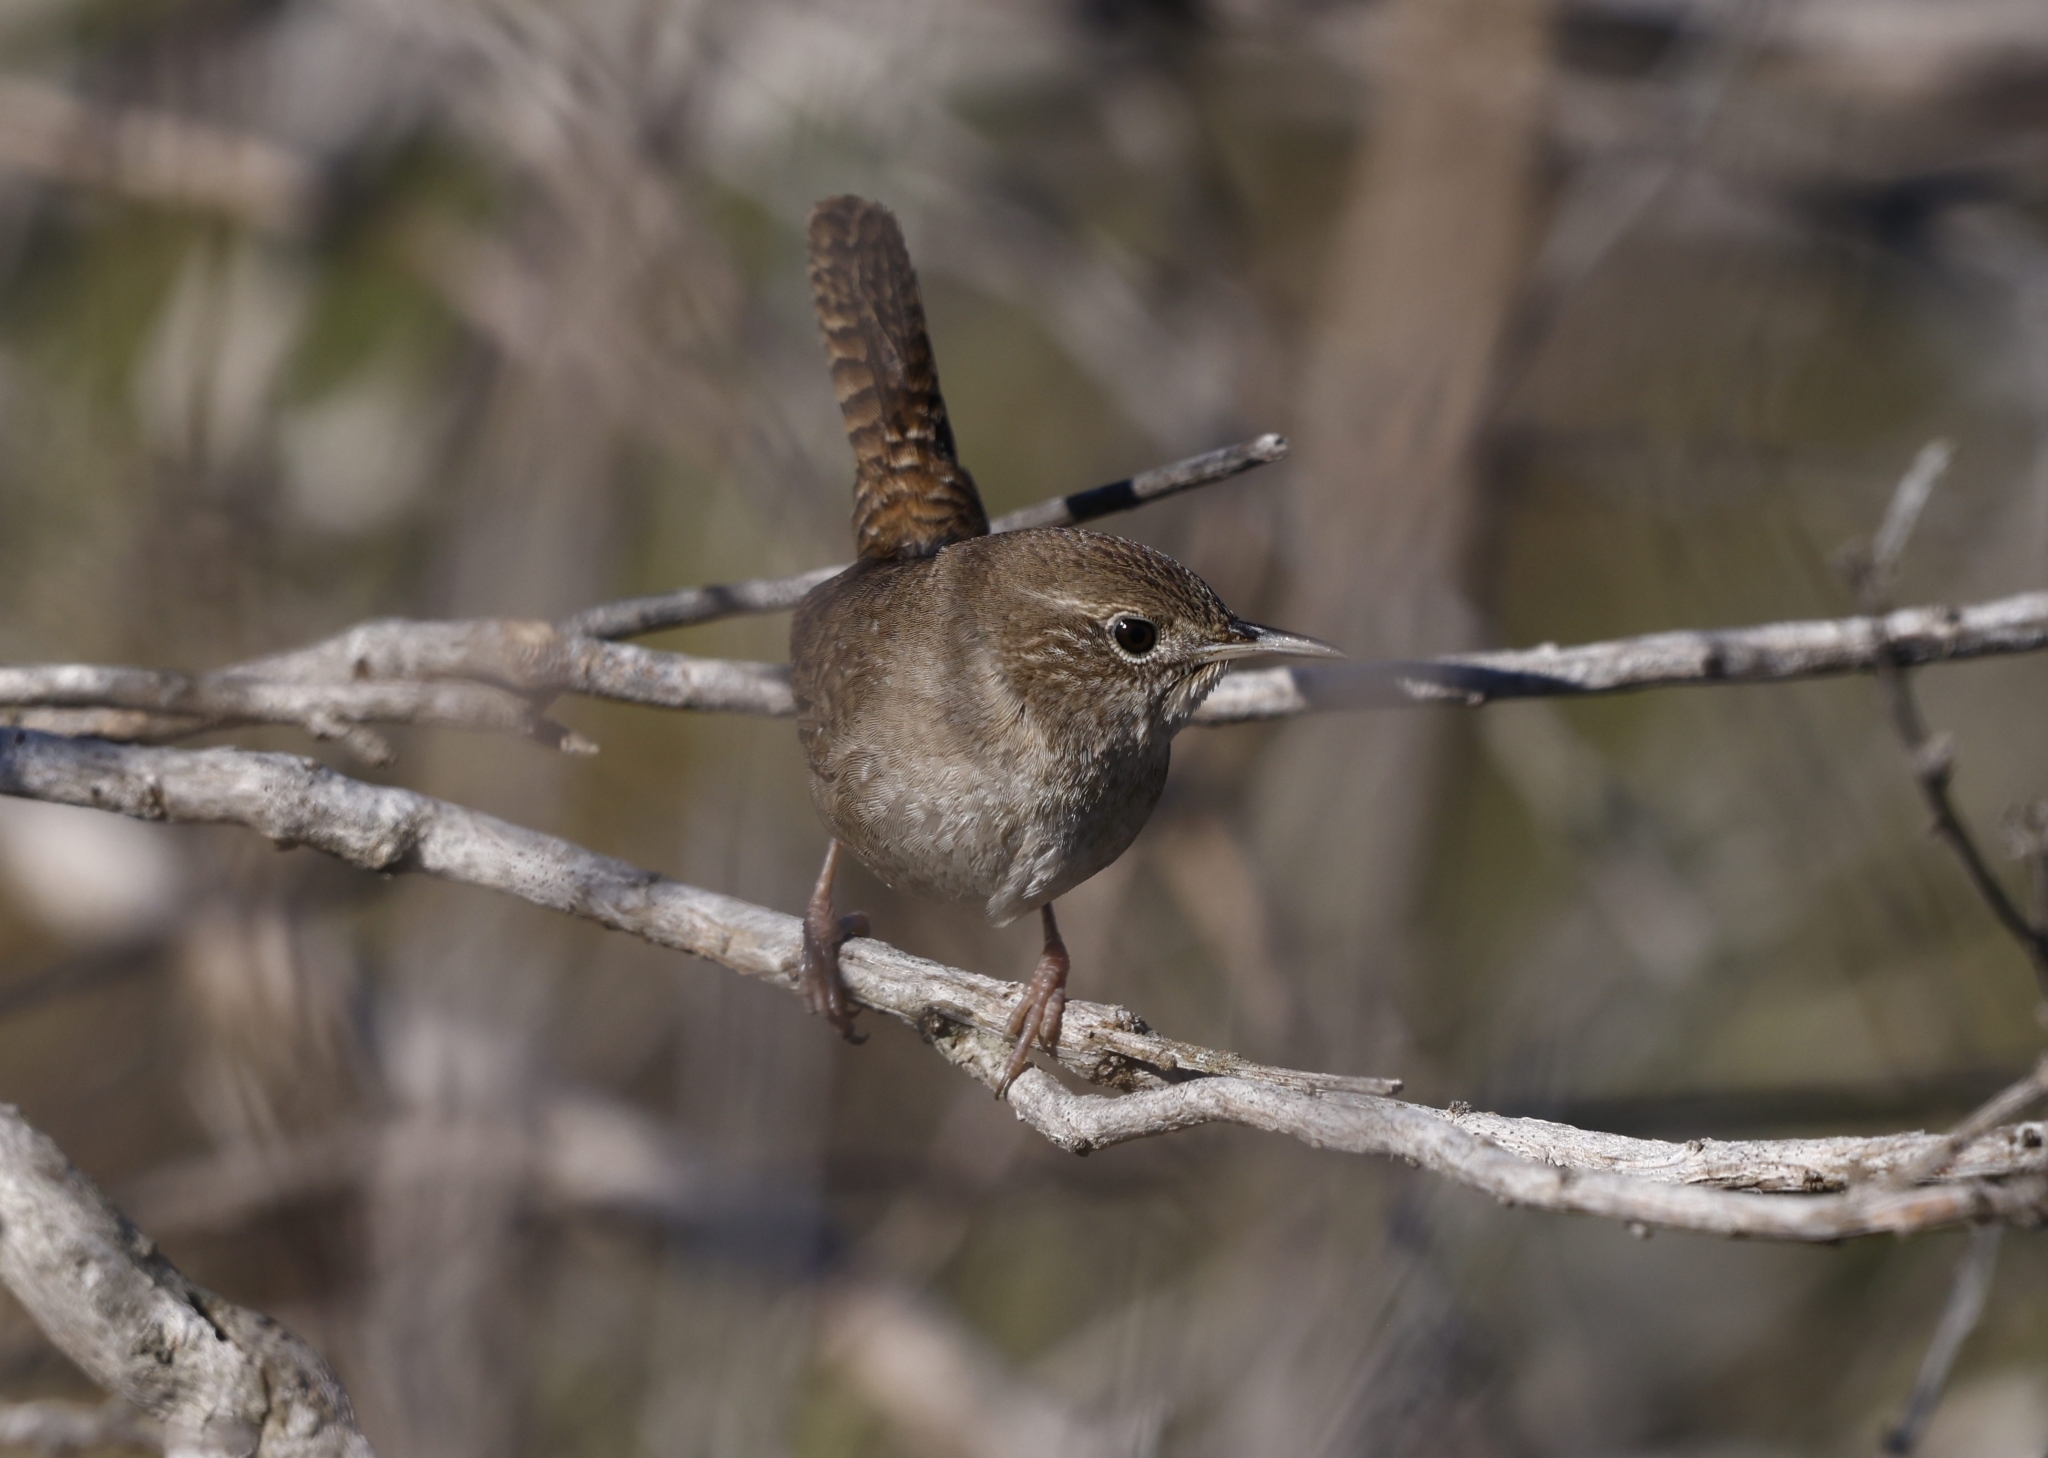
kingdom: Animalia
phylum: Chordata
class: Aves
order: Passeriformes
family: Troglodytidae
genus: Troglodytes
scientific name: Troglodytes aedon
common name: House wren
